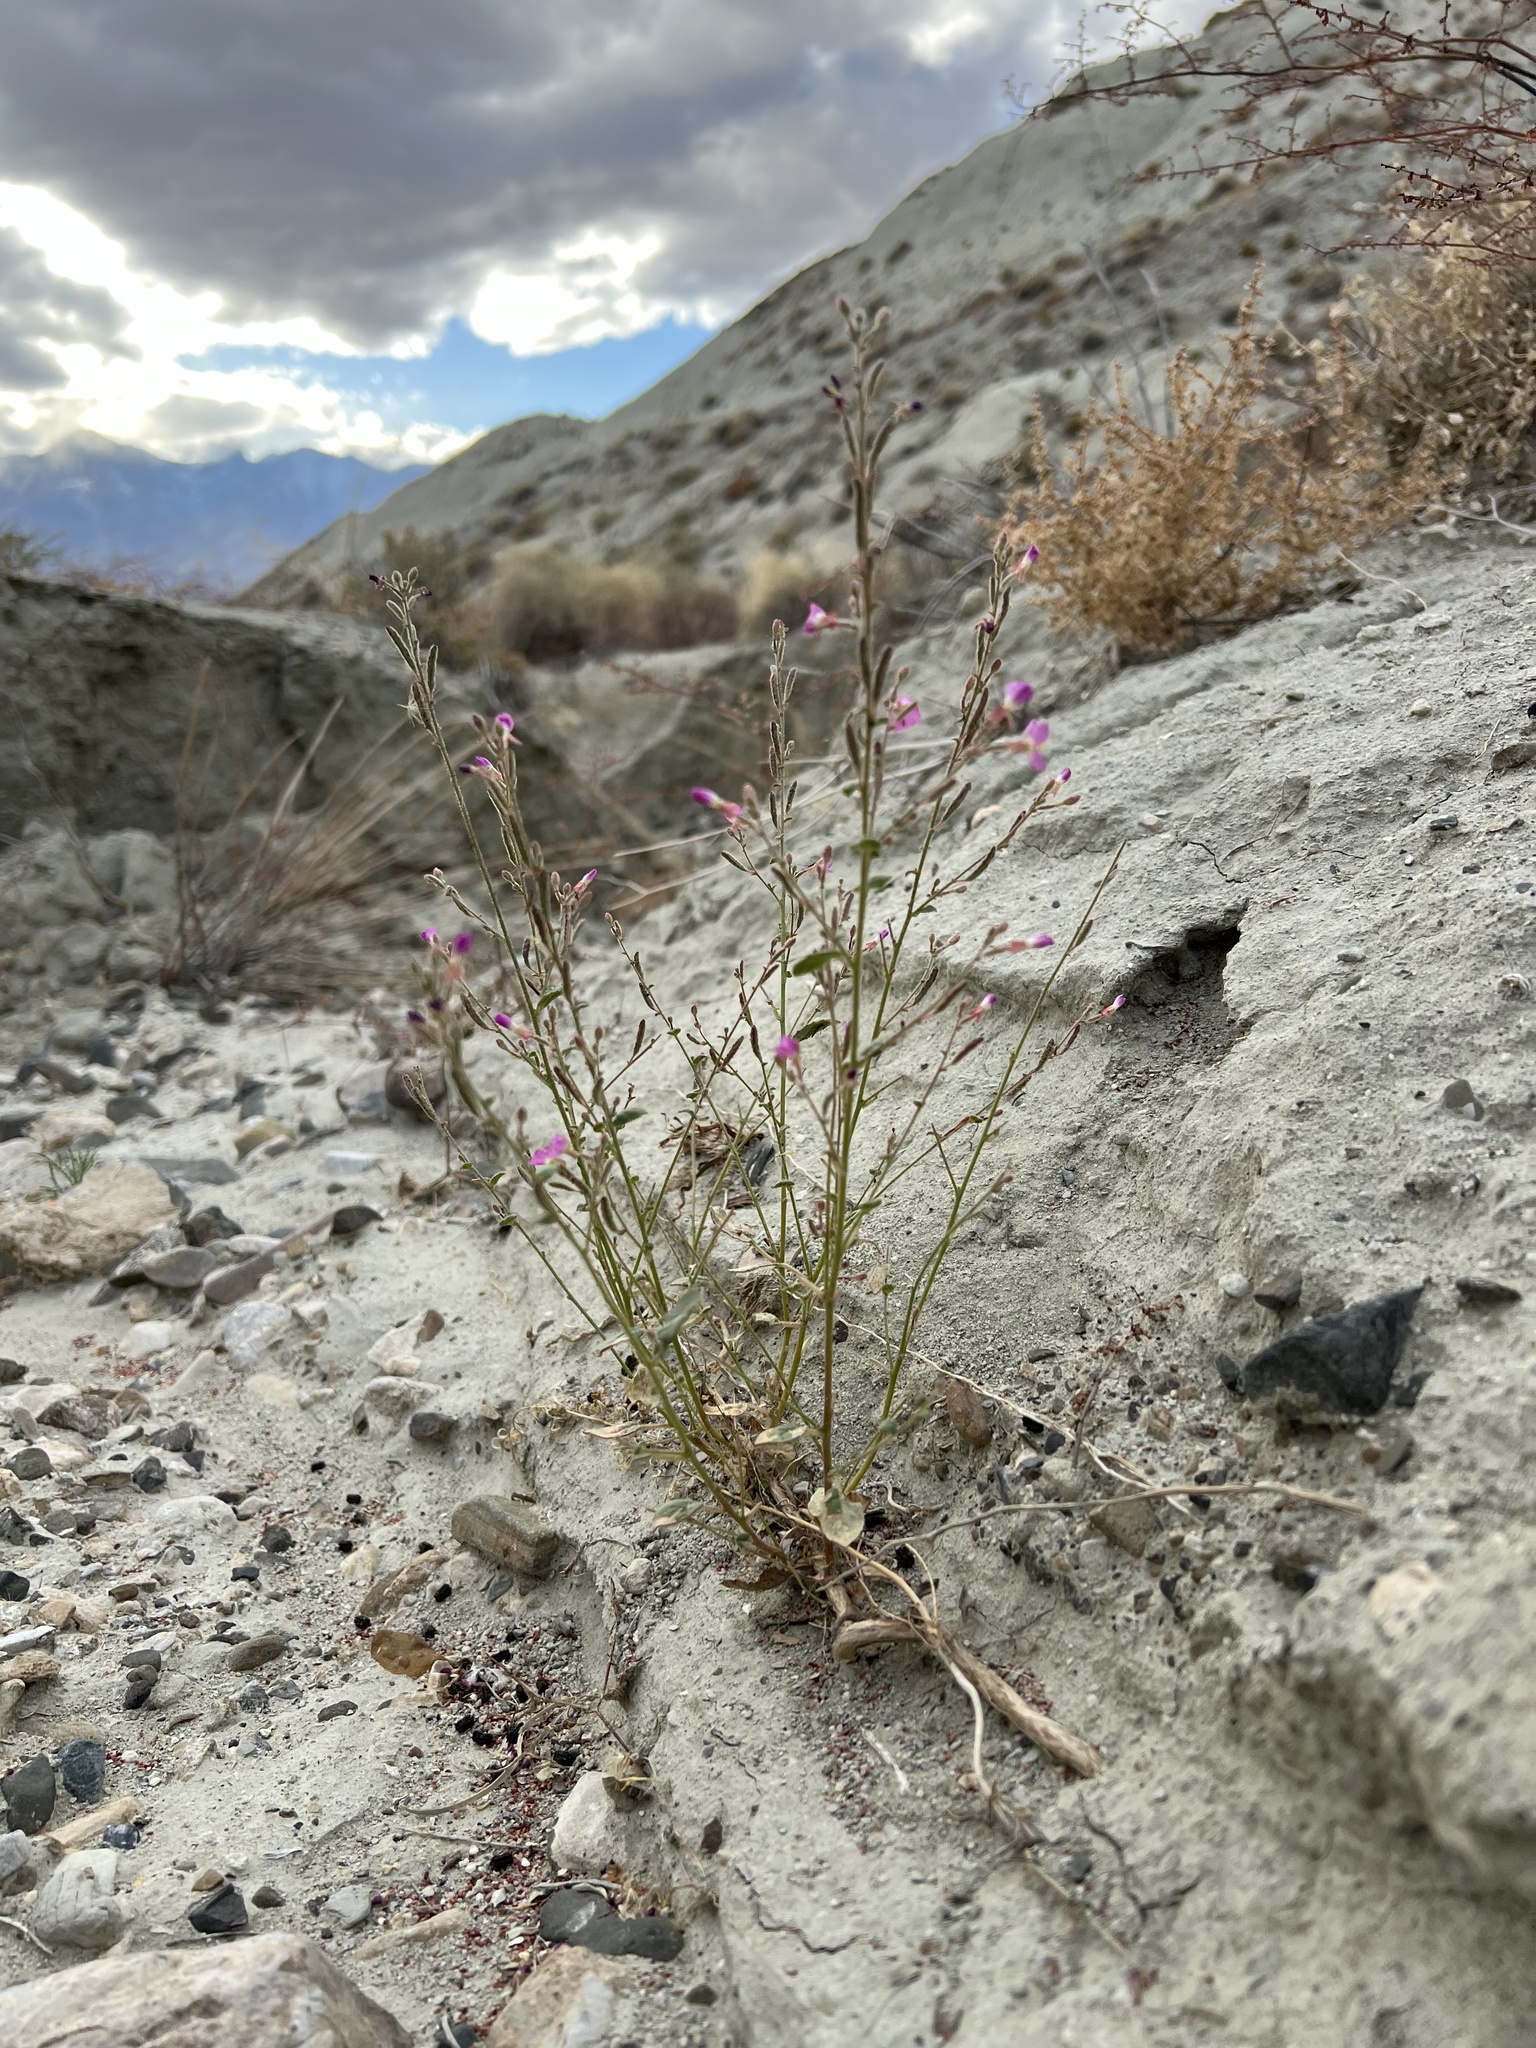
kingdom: Plantae
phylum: Tracheophyta
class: Magnoliopsida
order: Myrtales
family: Onagraceae
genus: Chylismia
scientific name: Chylismia heterochroma
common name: Shockley's evening primrose
